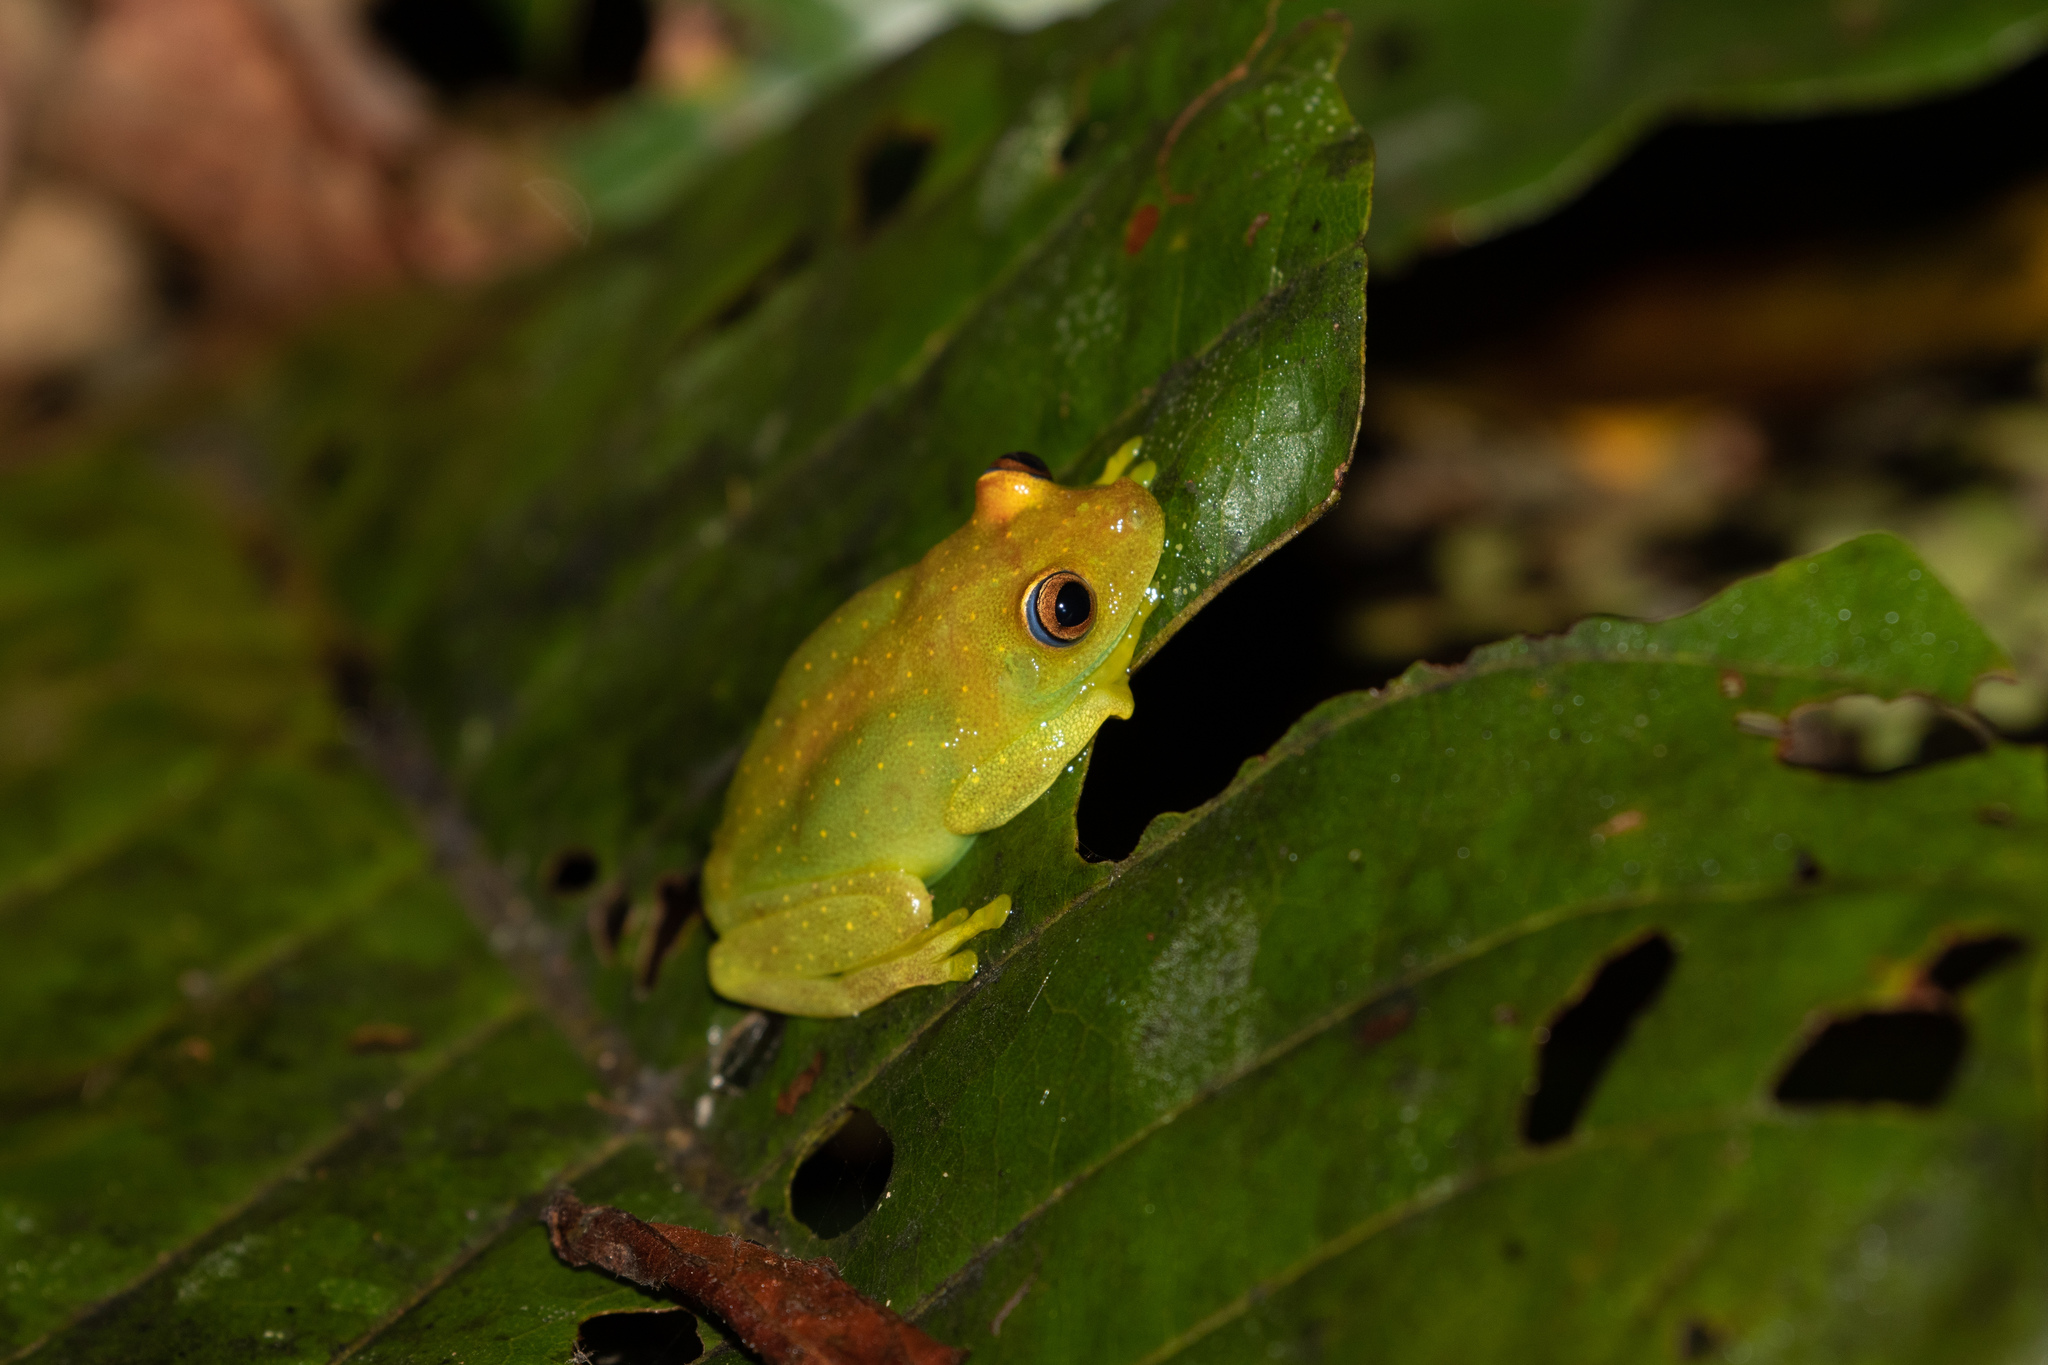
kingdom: Animalia
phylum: Chordata
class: Amphibia
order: Anura
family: Hylidae
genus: Boana
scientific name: Boana cinerascens
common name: Demerara falls treefrog
